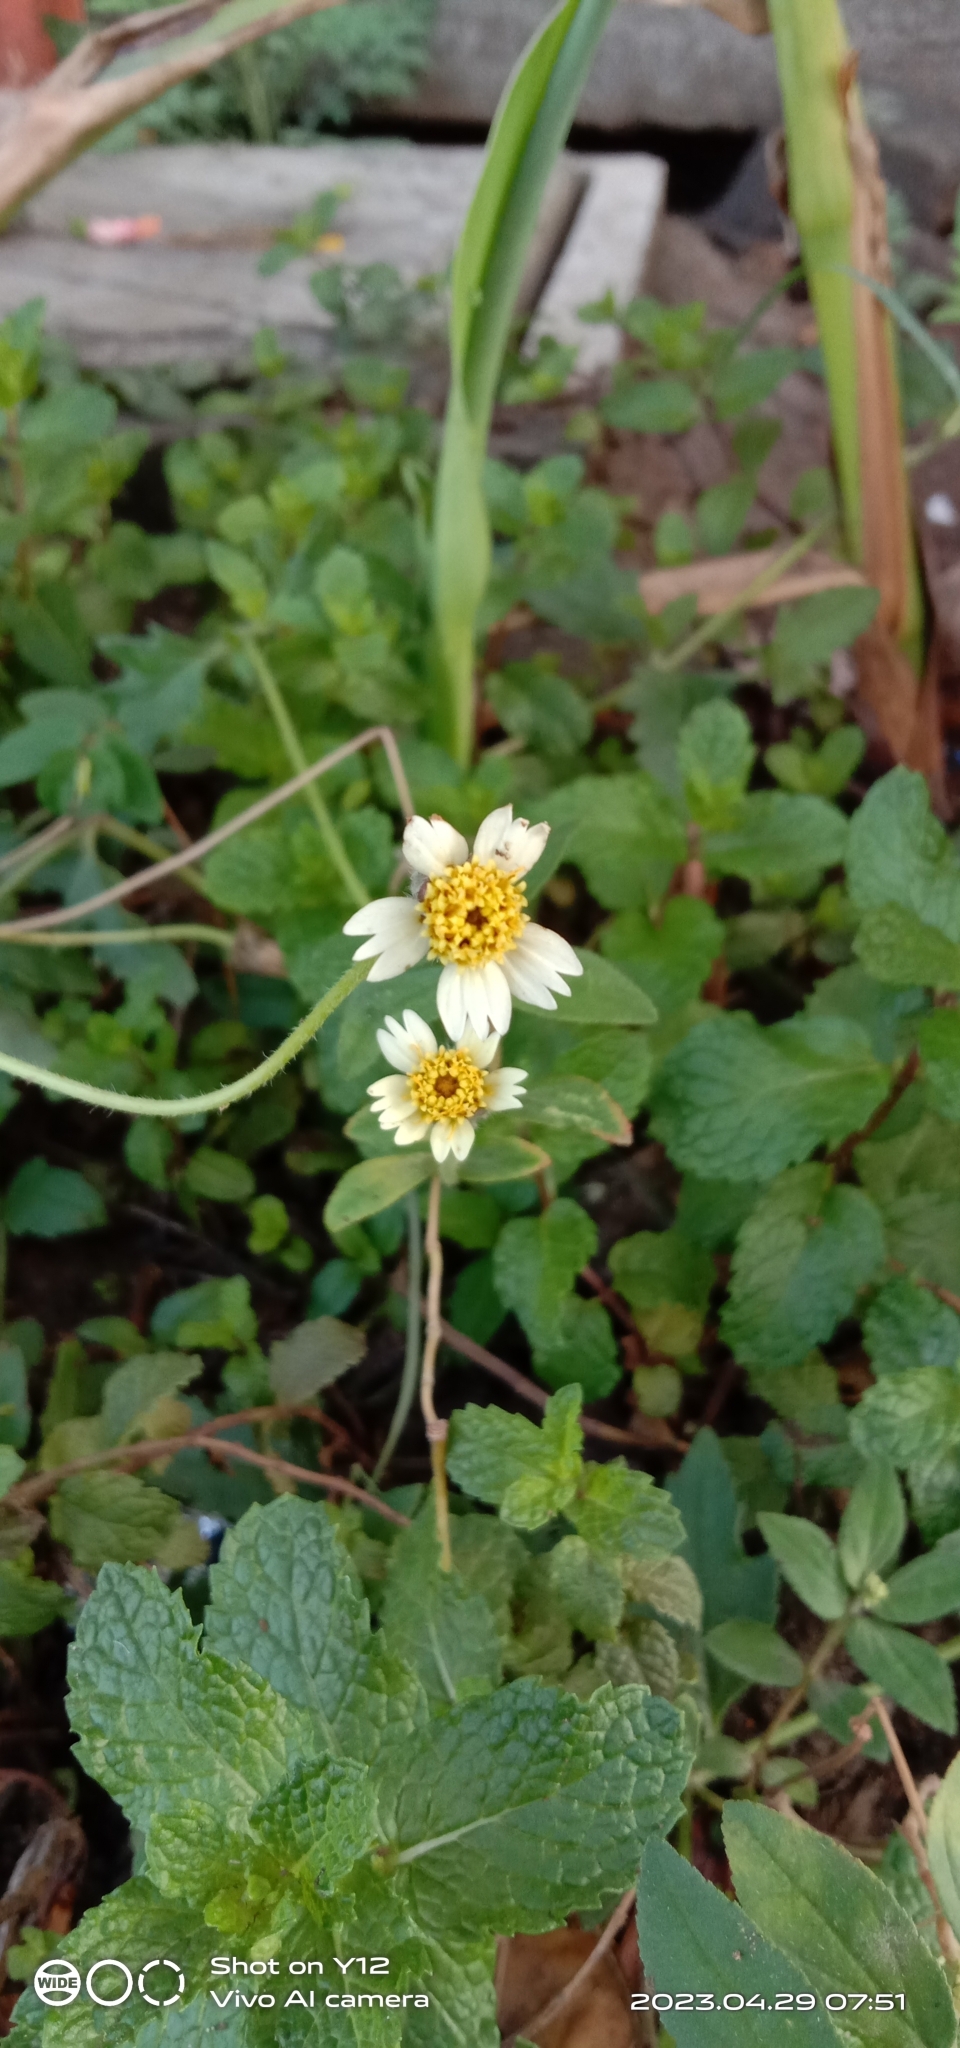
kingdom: Plantae
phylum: Tracheophyta
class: Magnoliopsida
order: Asterales
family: Asteraceae
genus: Tridax
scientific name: Tridax procumbens
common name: Coatbuttons
